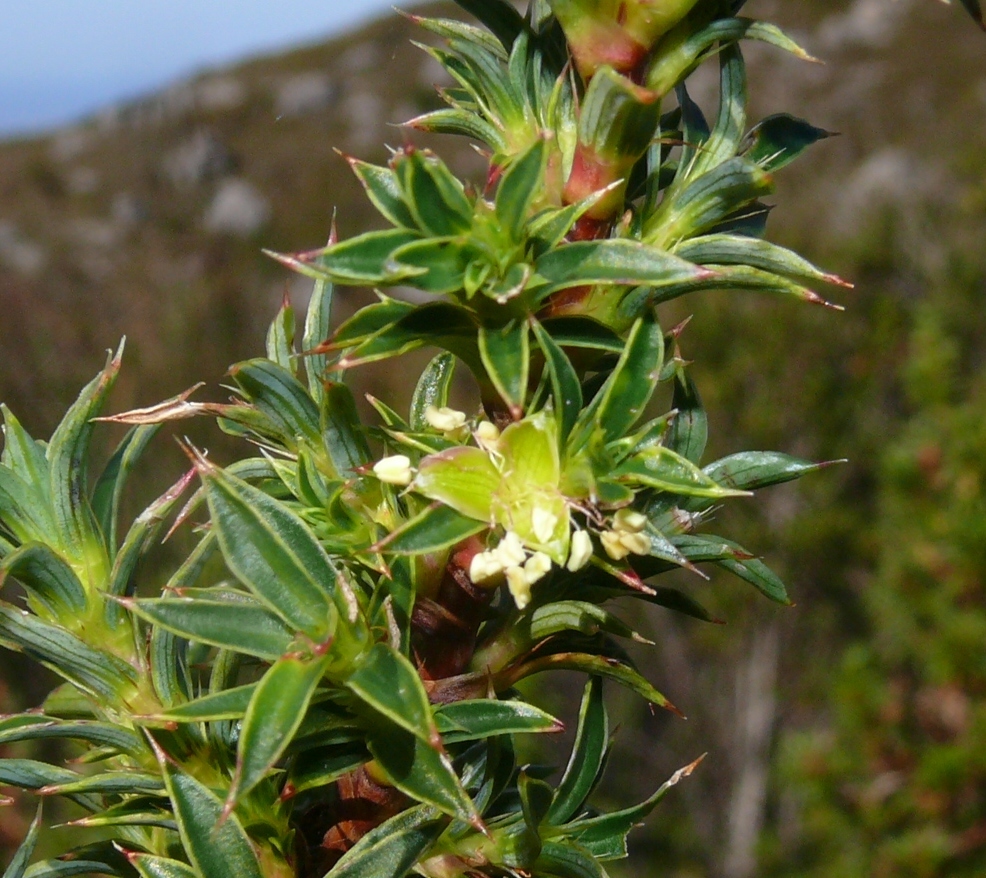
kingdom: Plantae
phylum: Tracheophyta
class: Magnoliopsida
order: Rosales
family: Rosaceae
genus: Cliffortia
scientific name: Cliffortia theodori-friesii
